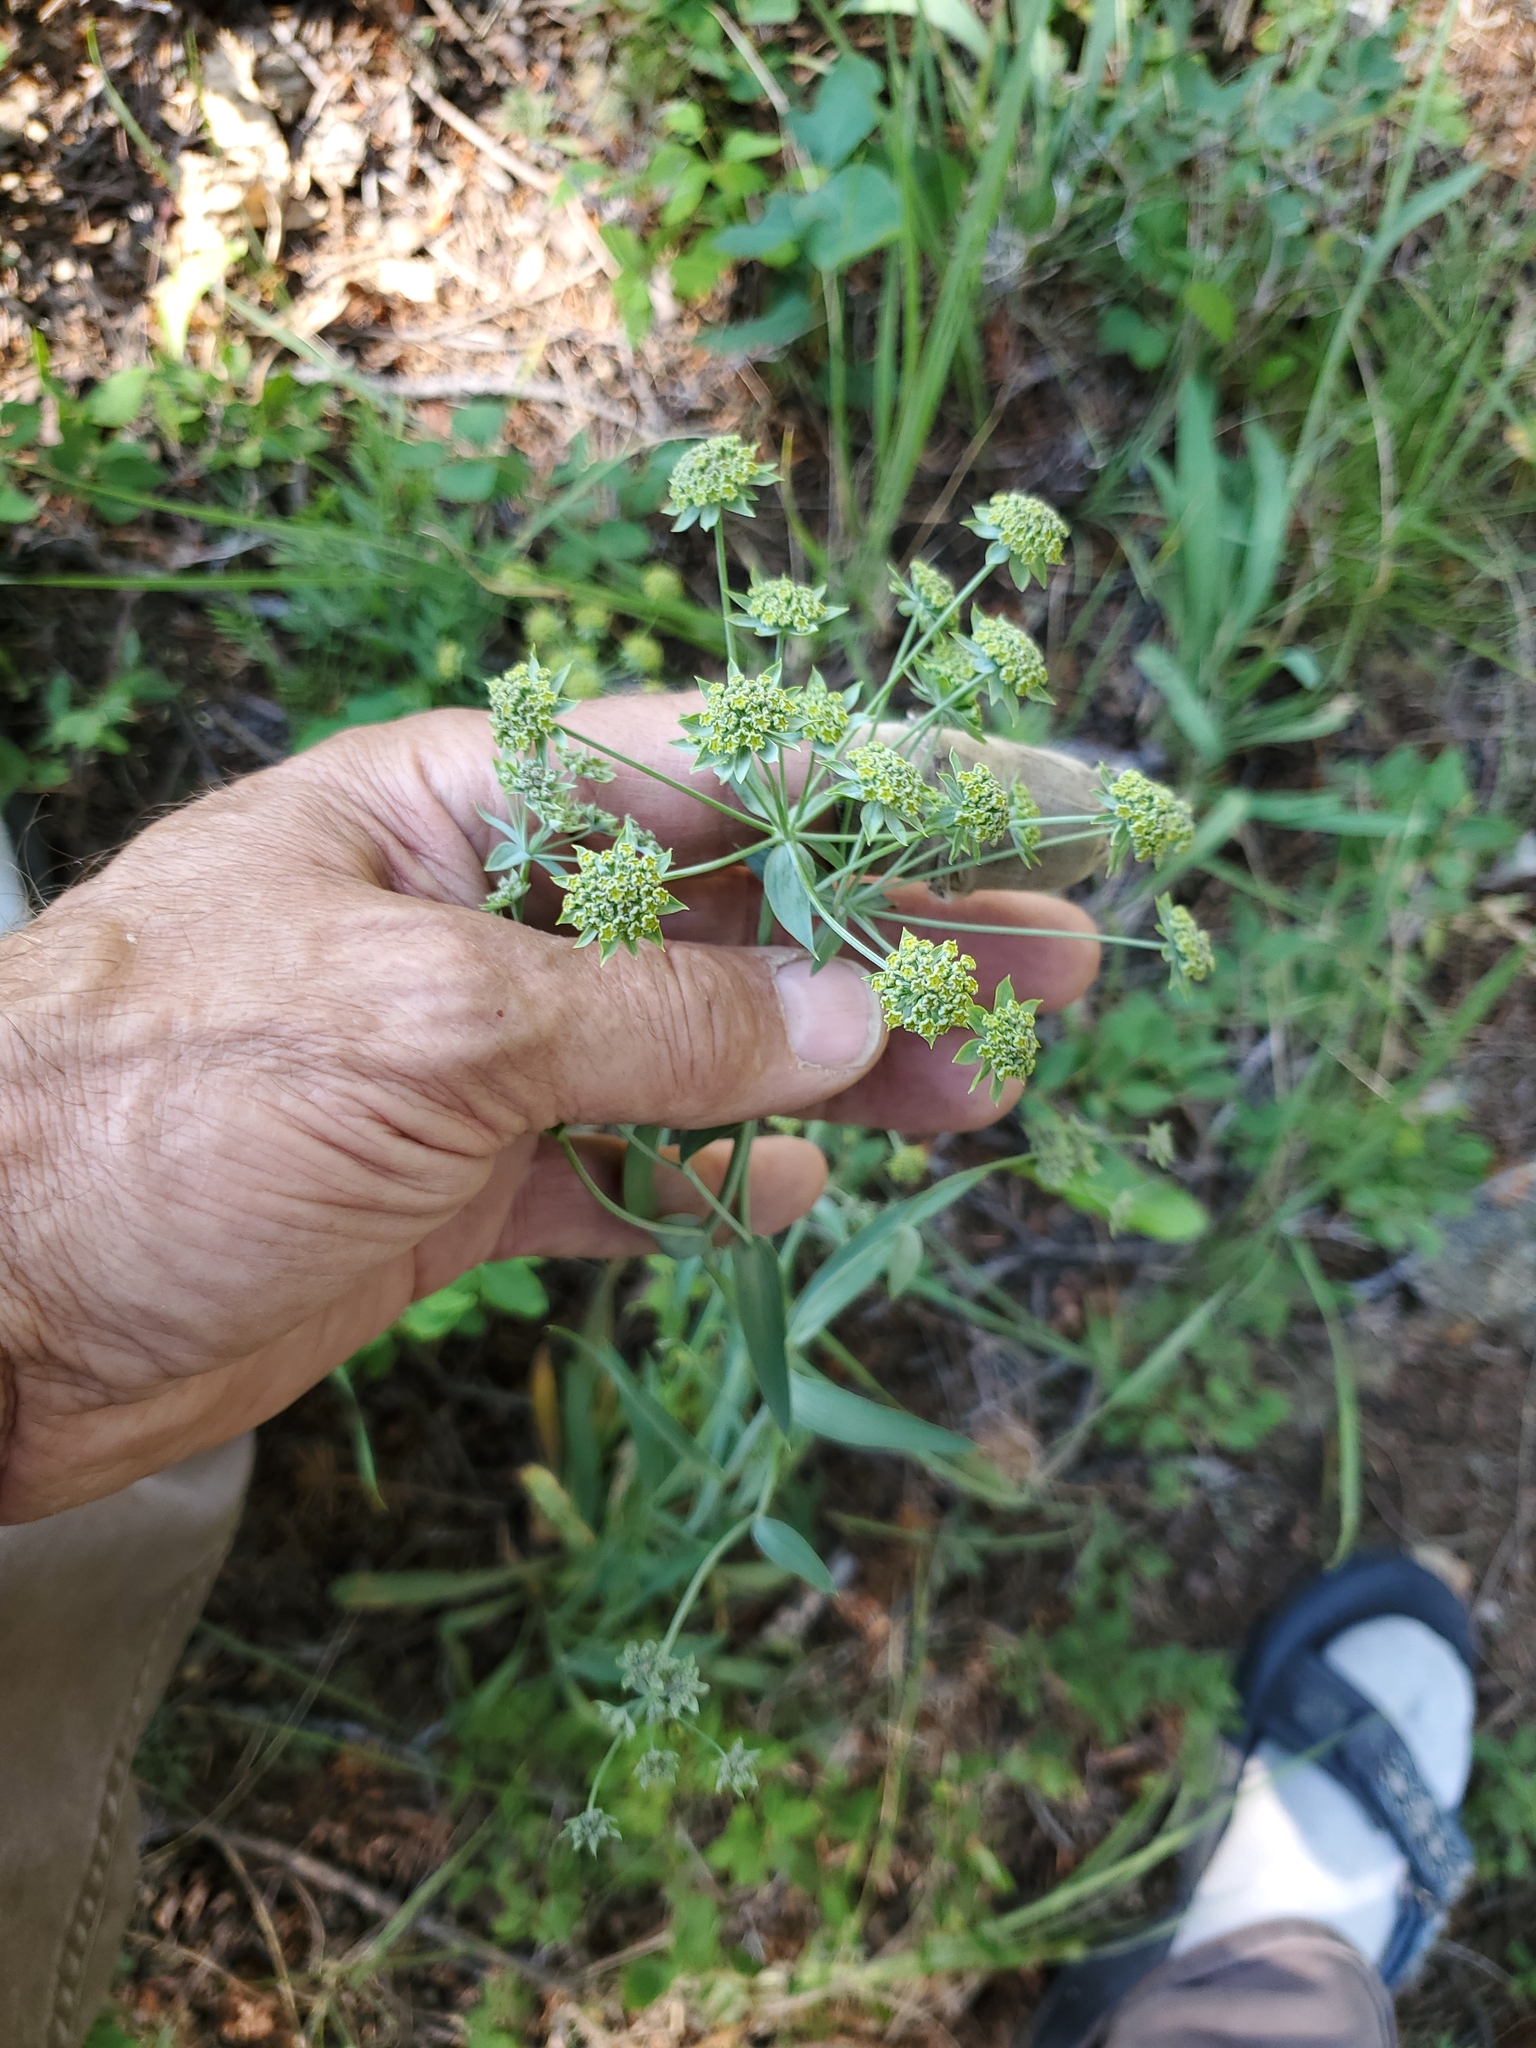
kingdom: Plantae
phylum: Tracheophyta
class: Magnoliopsida
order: Apiales
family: Apiaceae
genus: Bupleurum
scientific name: Bupleurum americanum
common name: American thoroughwax
